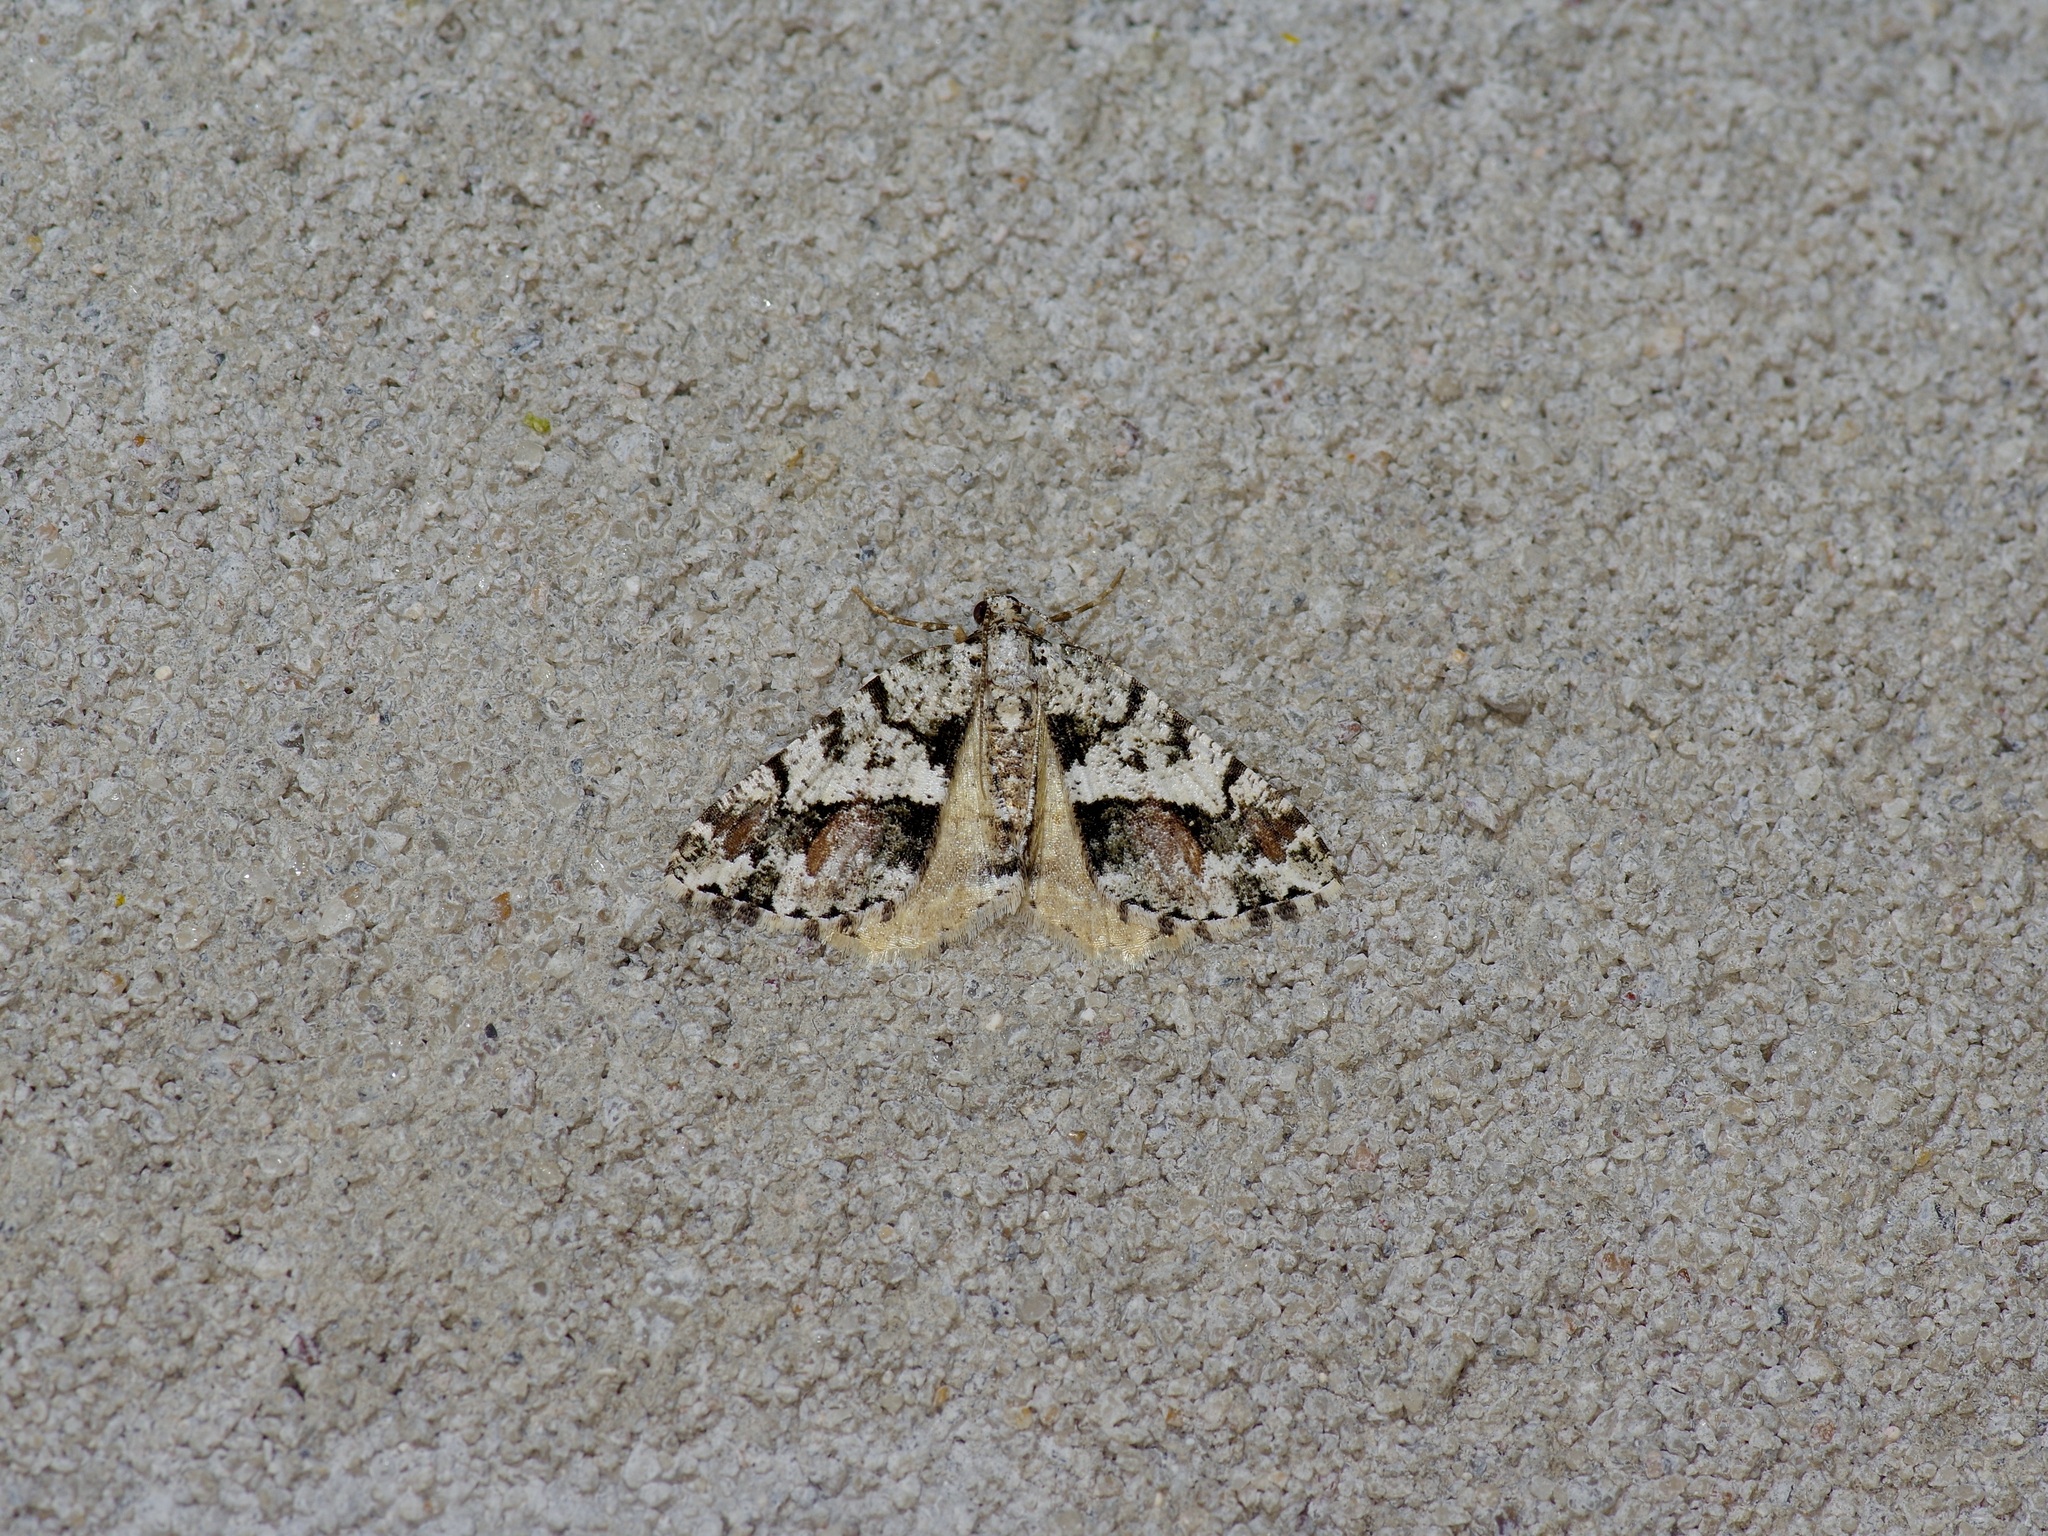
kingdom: Animalia
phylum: Arthropoda
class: Insecta
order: Lepidoptera
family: Geometridae
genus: Macaria
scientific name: Macaria graphidaria
